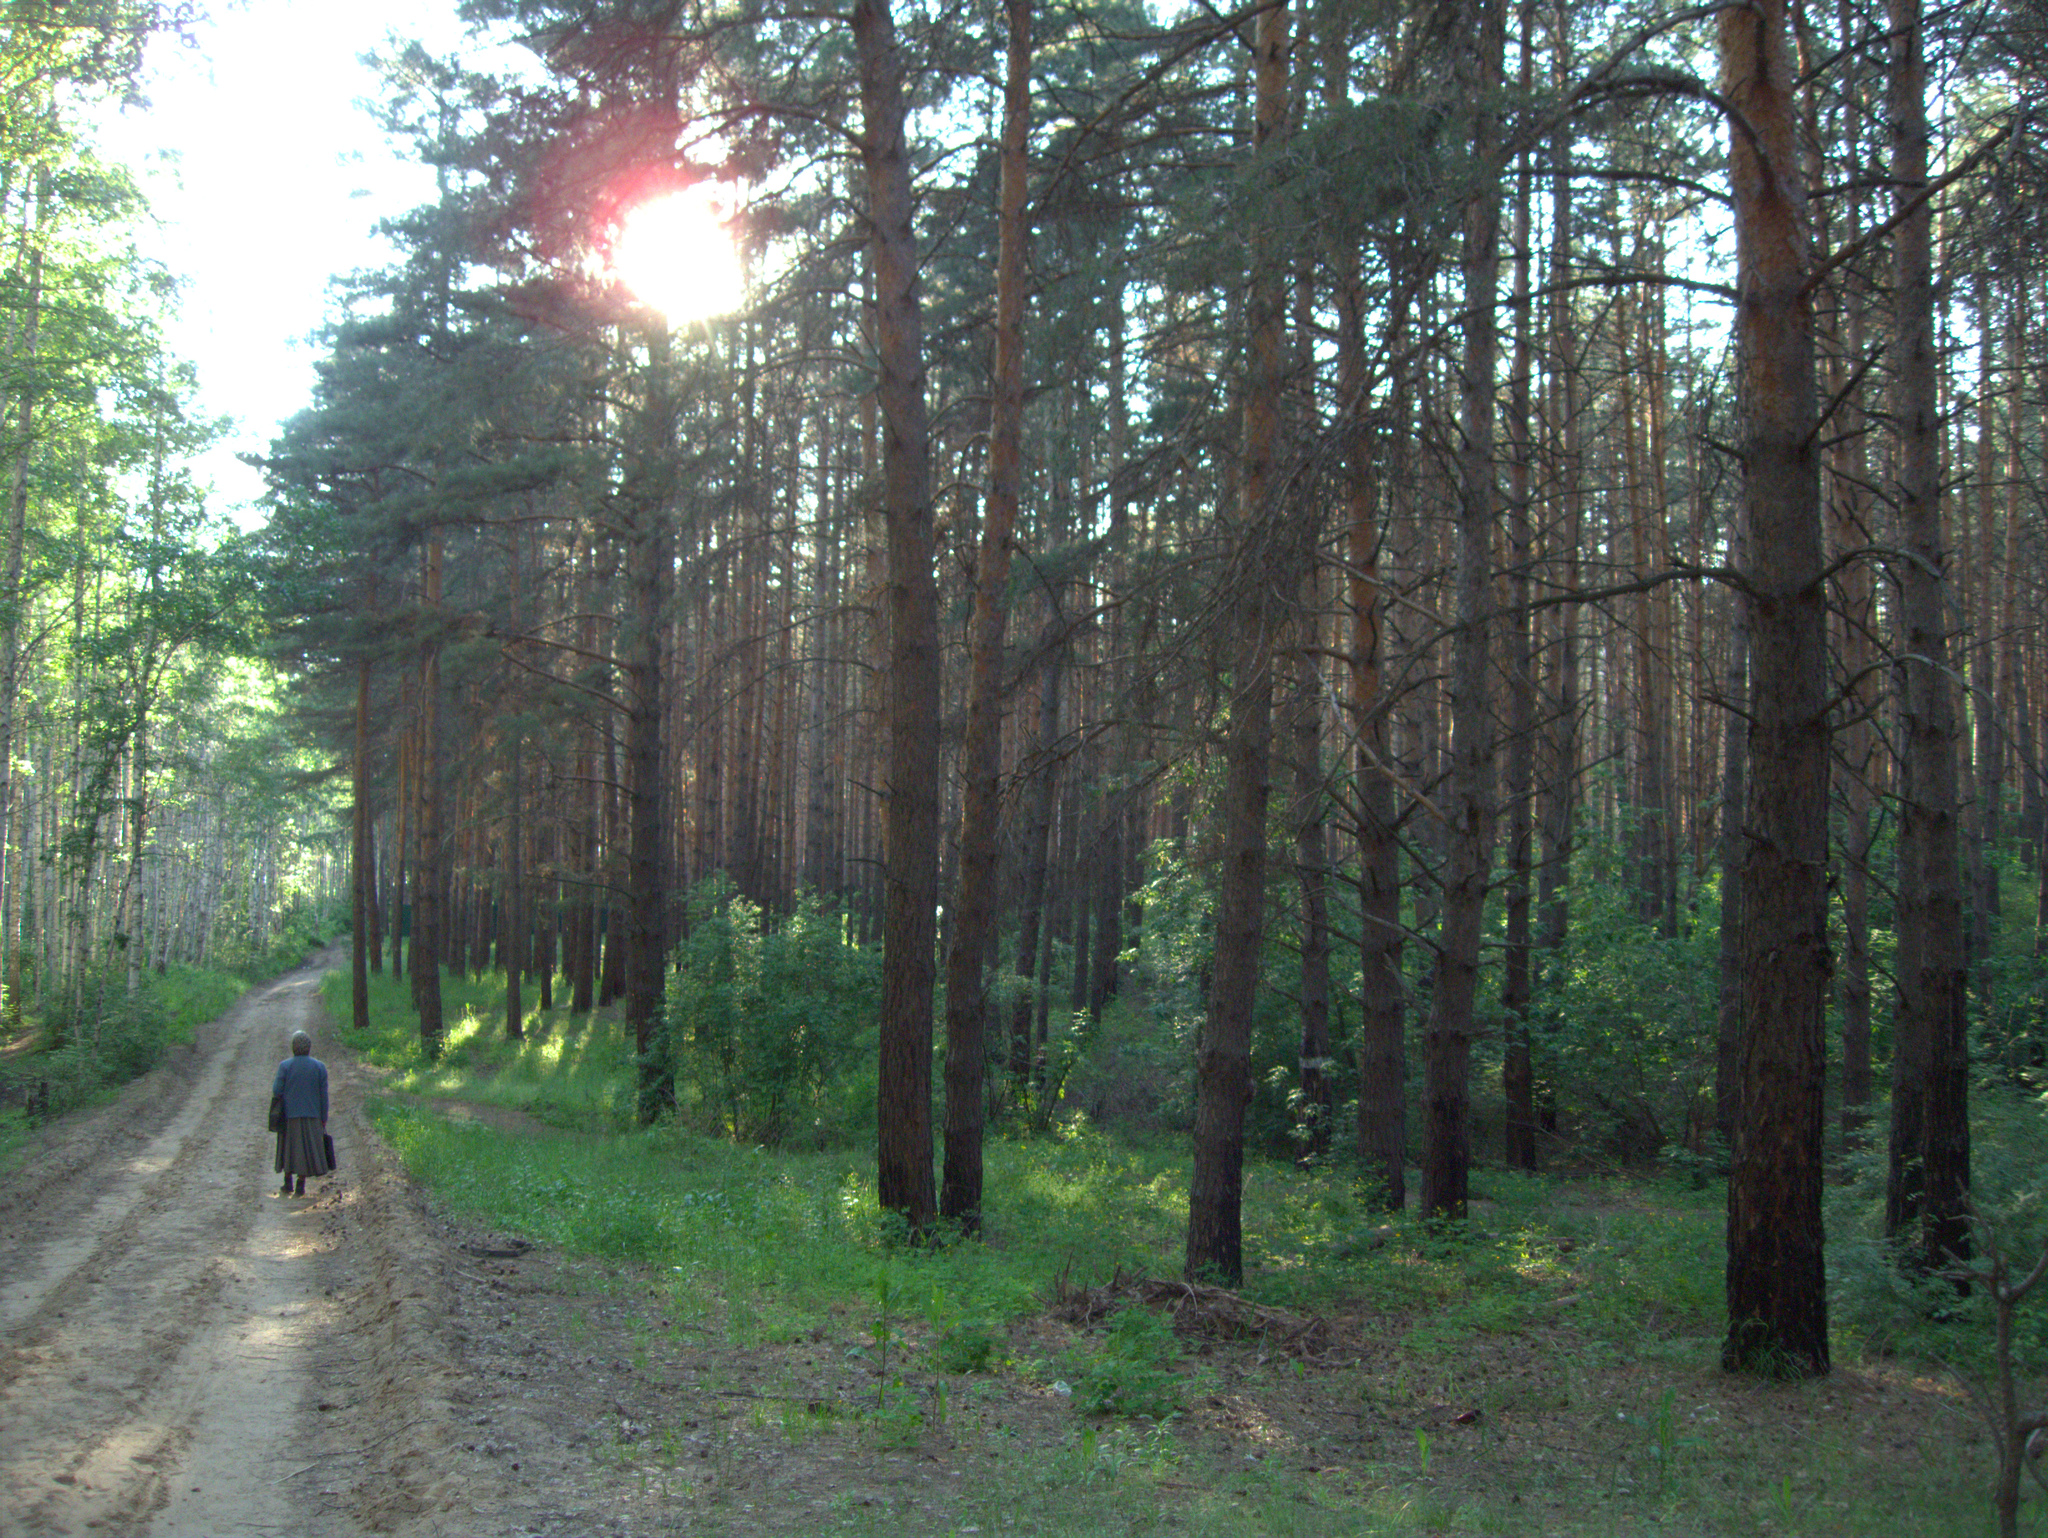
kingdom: Plantae
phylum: Tracheophyta
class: Pinopsida
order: Pinales
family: Pinaceae
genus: Pinus
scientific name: Pinus sylvestris
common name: Scots pine
